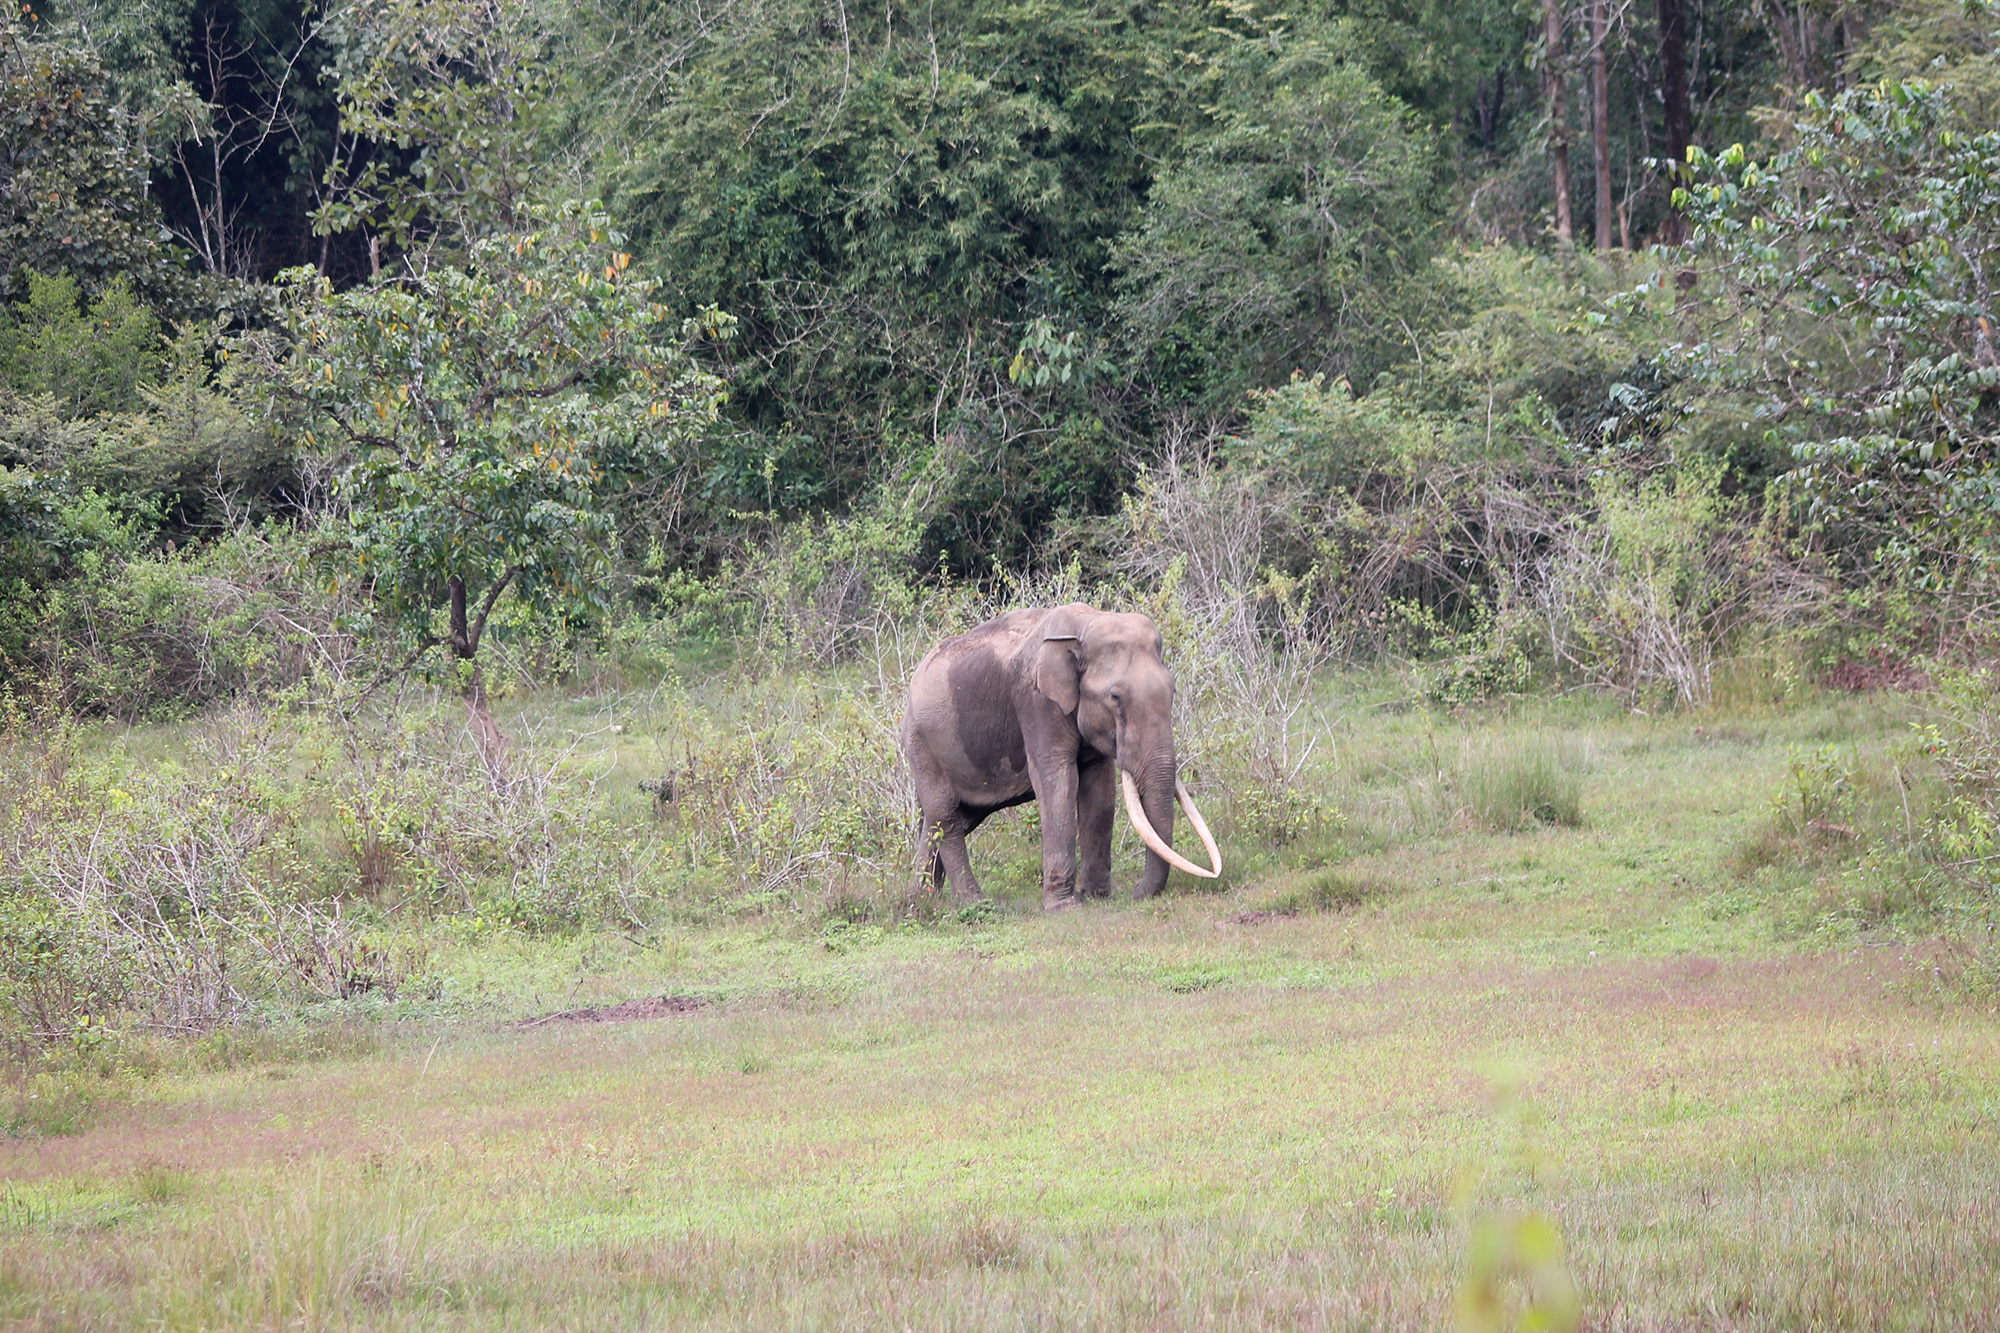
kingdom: Animalia
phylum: Chordata
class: Mammalia
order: Proboscidea
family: Elephantidae
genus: Elephas
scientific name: Elephas maximus
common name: Asian elephant
